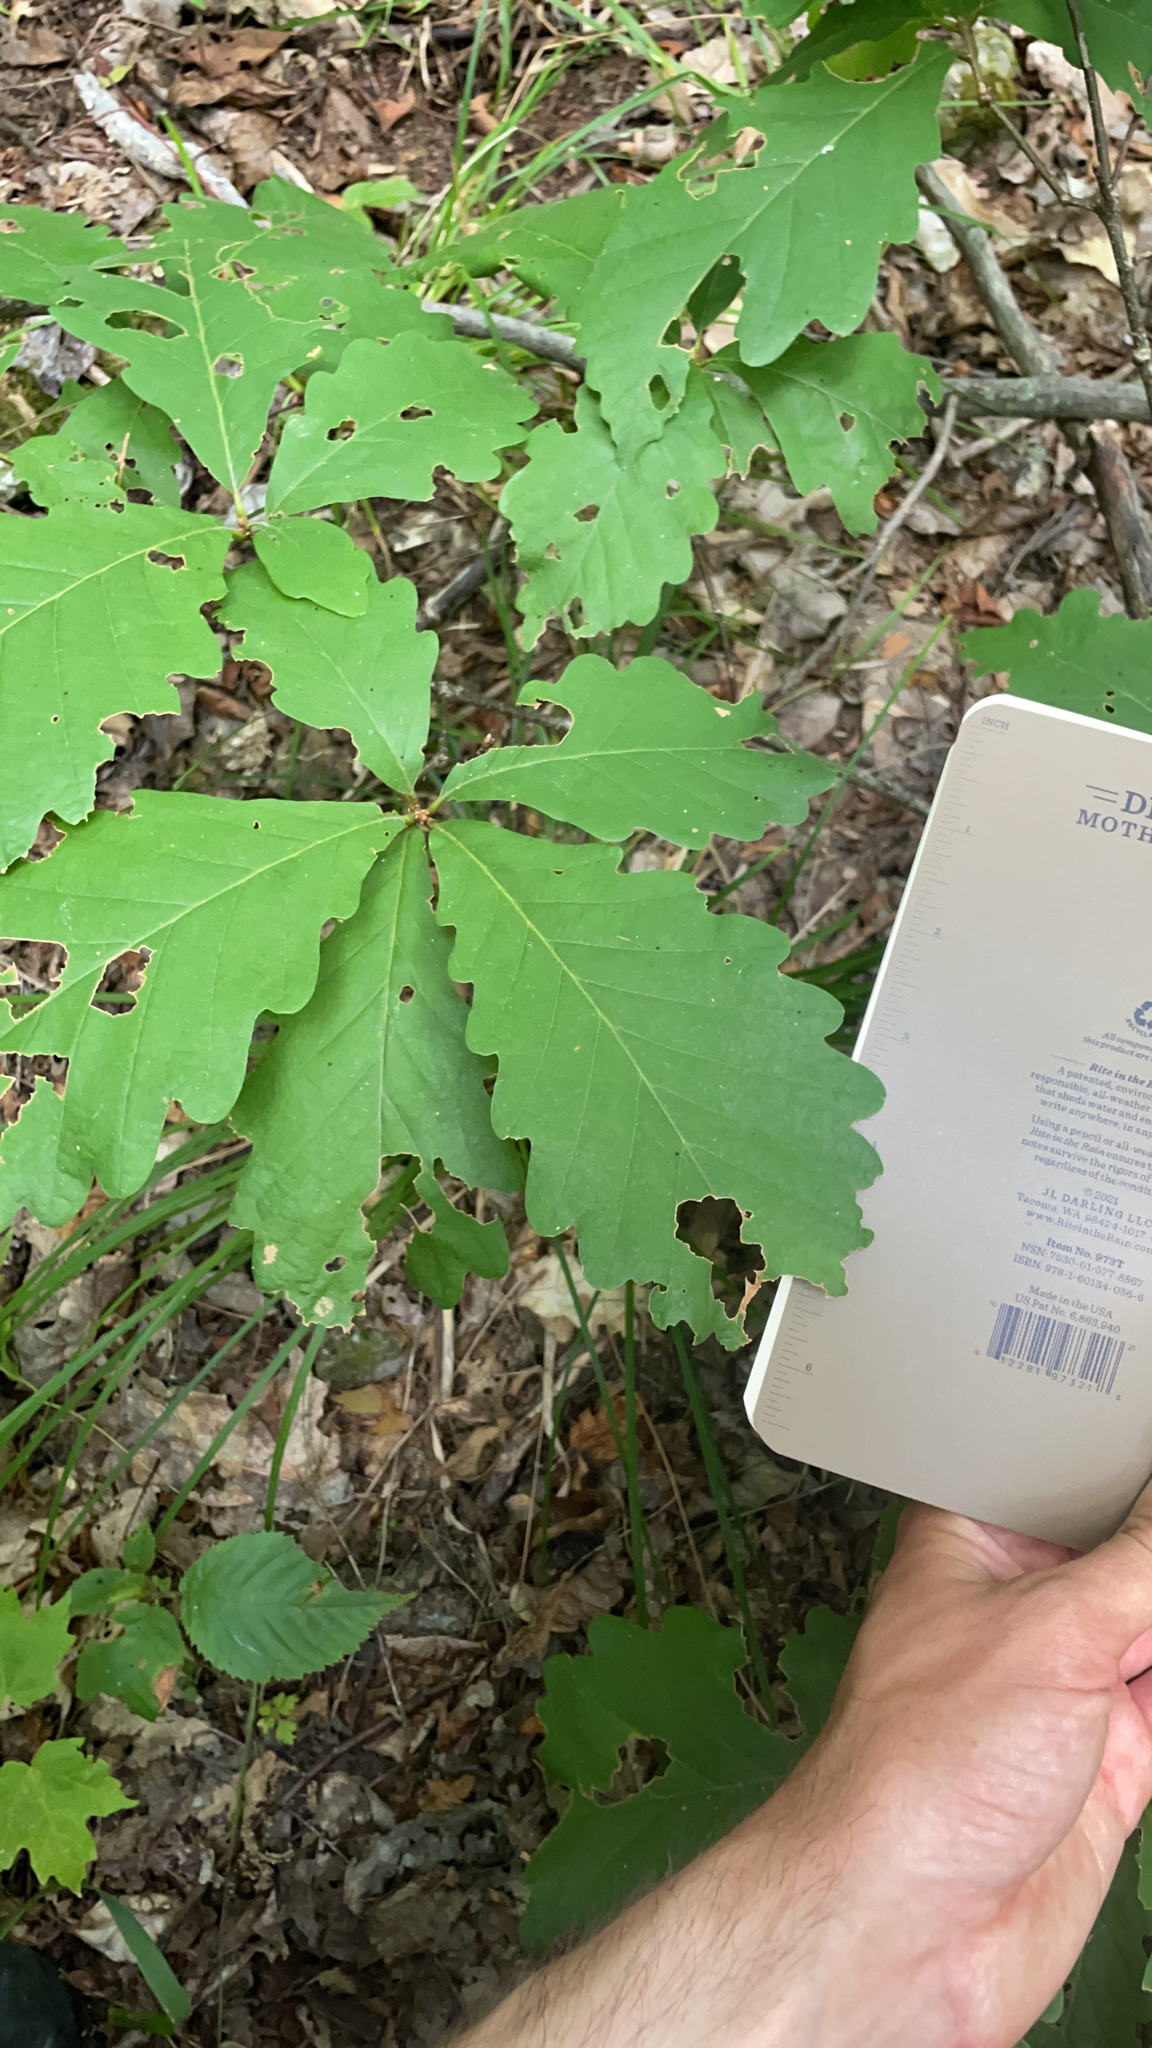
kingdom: Plantae
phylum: Tracheophyta
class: Magnoliopsida
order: Fagales
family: Fagaceae
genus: Quercus
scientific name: Quercus montana
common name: Chestnut oak
